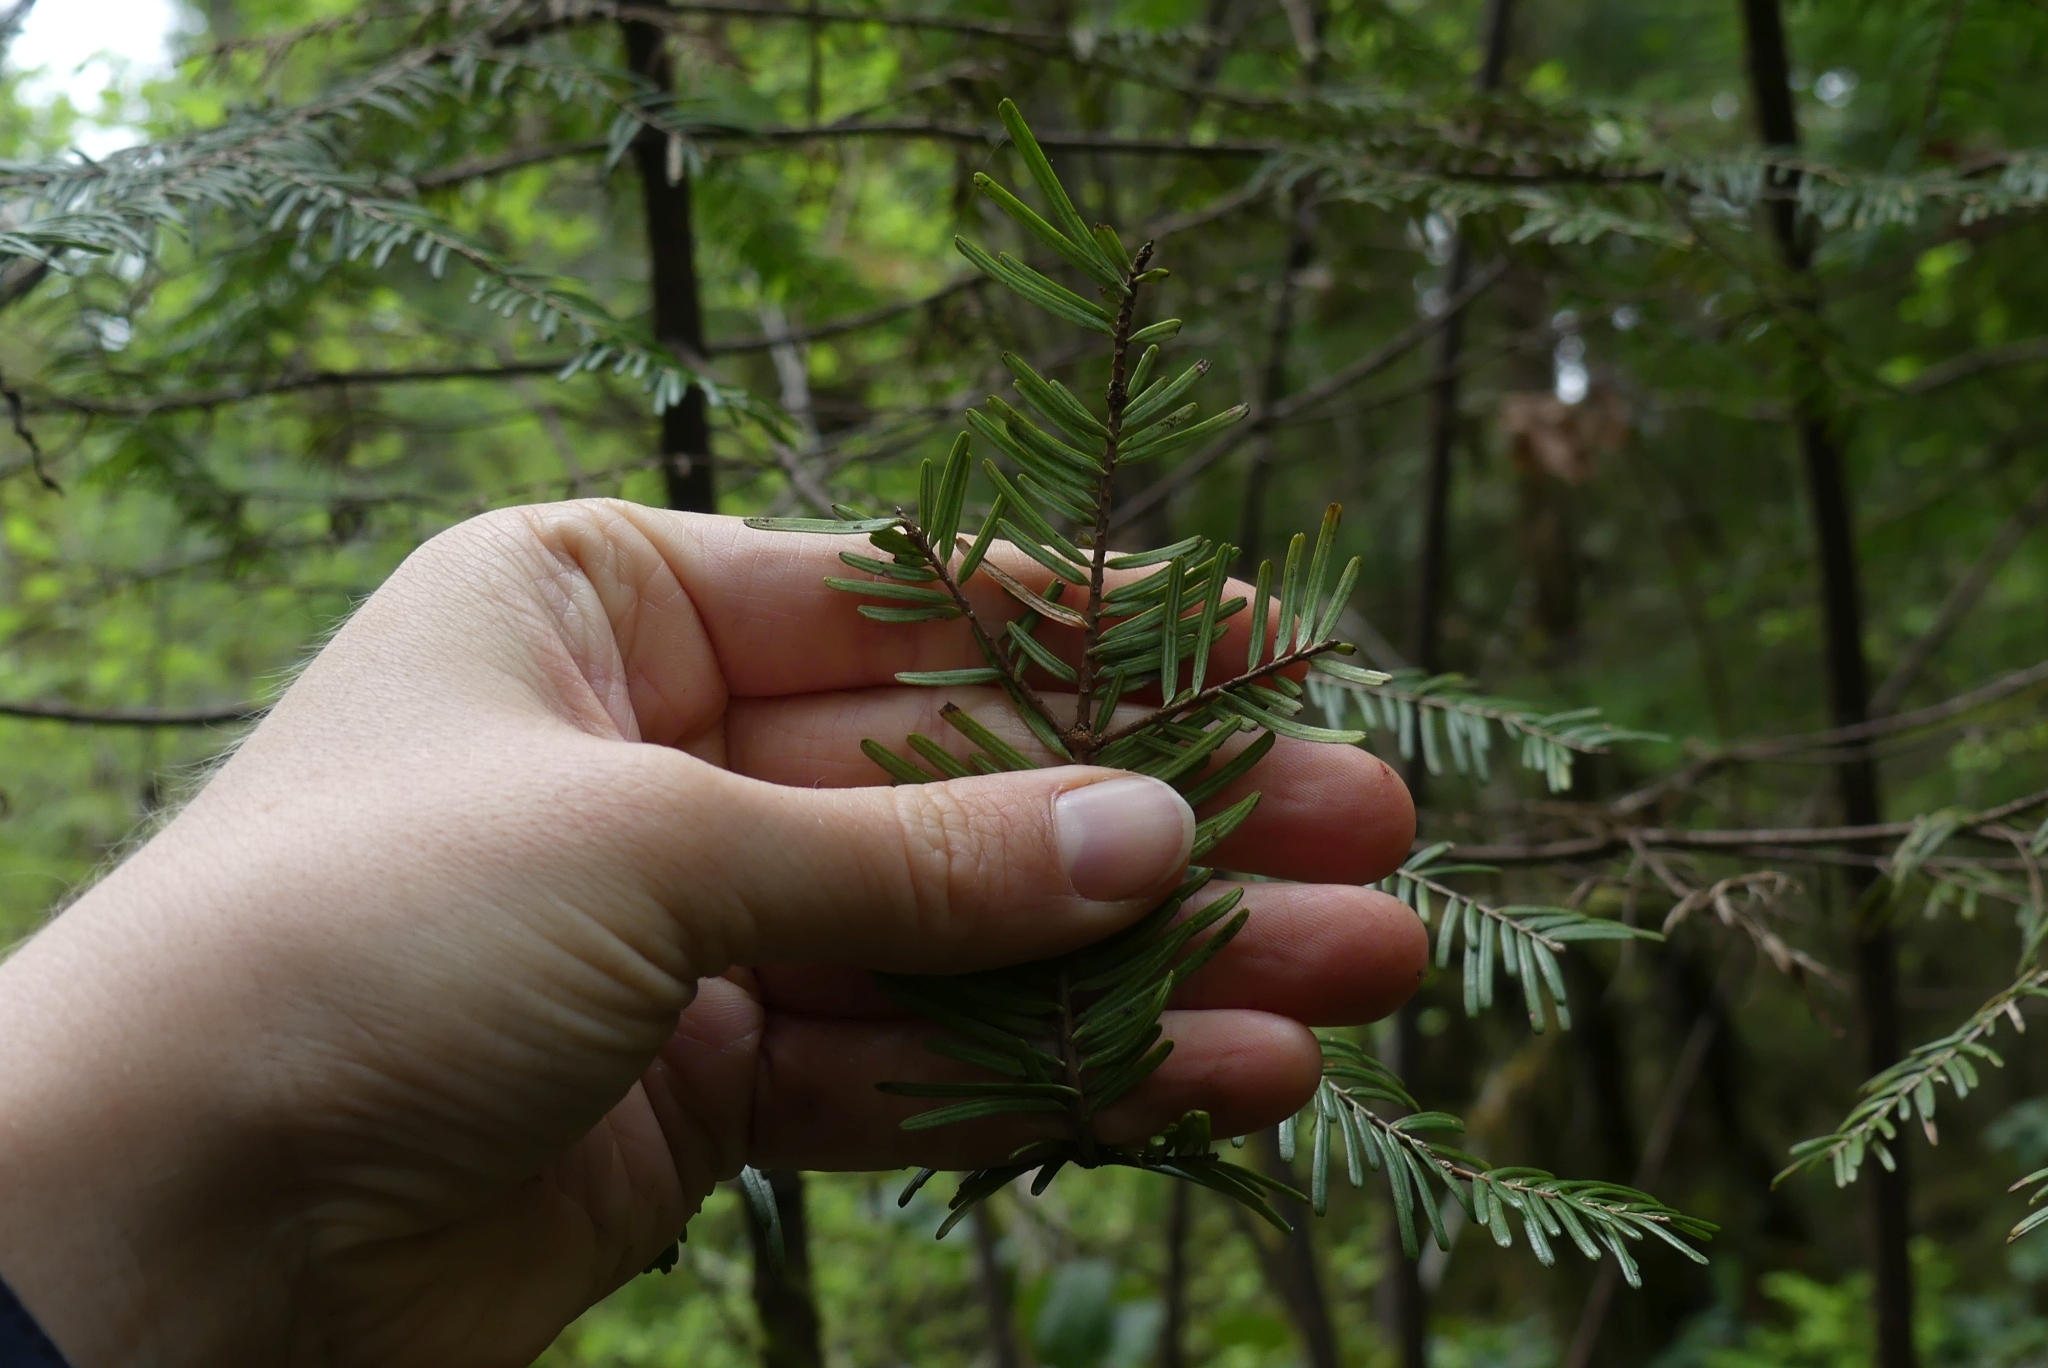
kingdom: Plantae
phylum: Tracheophyta
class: Pinopsida
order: Pinales
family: Pinaceae
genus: Abies
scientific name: Abies grandis
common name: Giant fir
